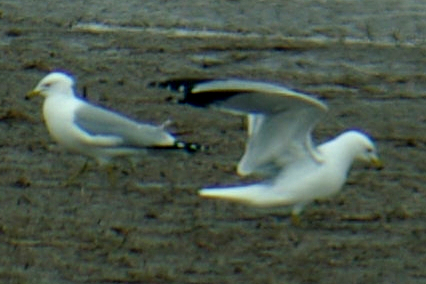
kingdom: Animalia
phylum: Chordata
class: Aves
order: Charadriiformes
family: Laridae
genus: Larus
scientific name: Larus delawarensis
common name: Ring-billed gull
